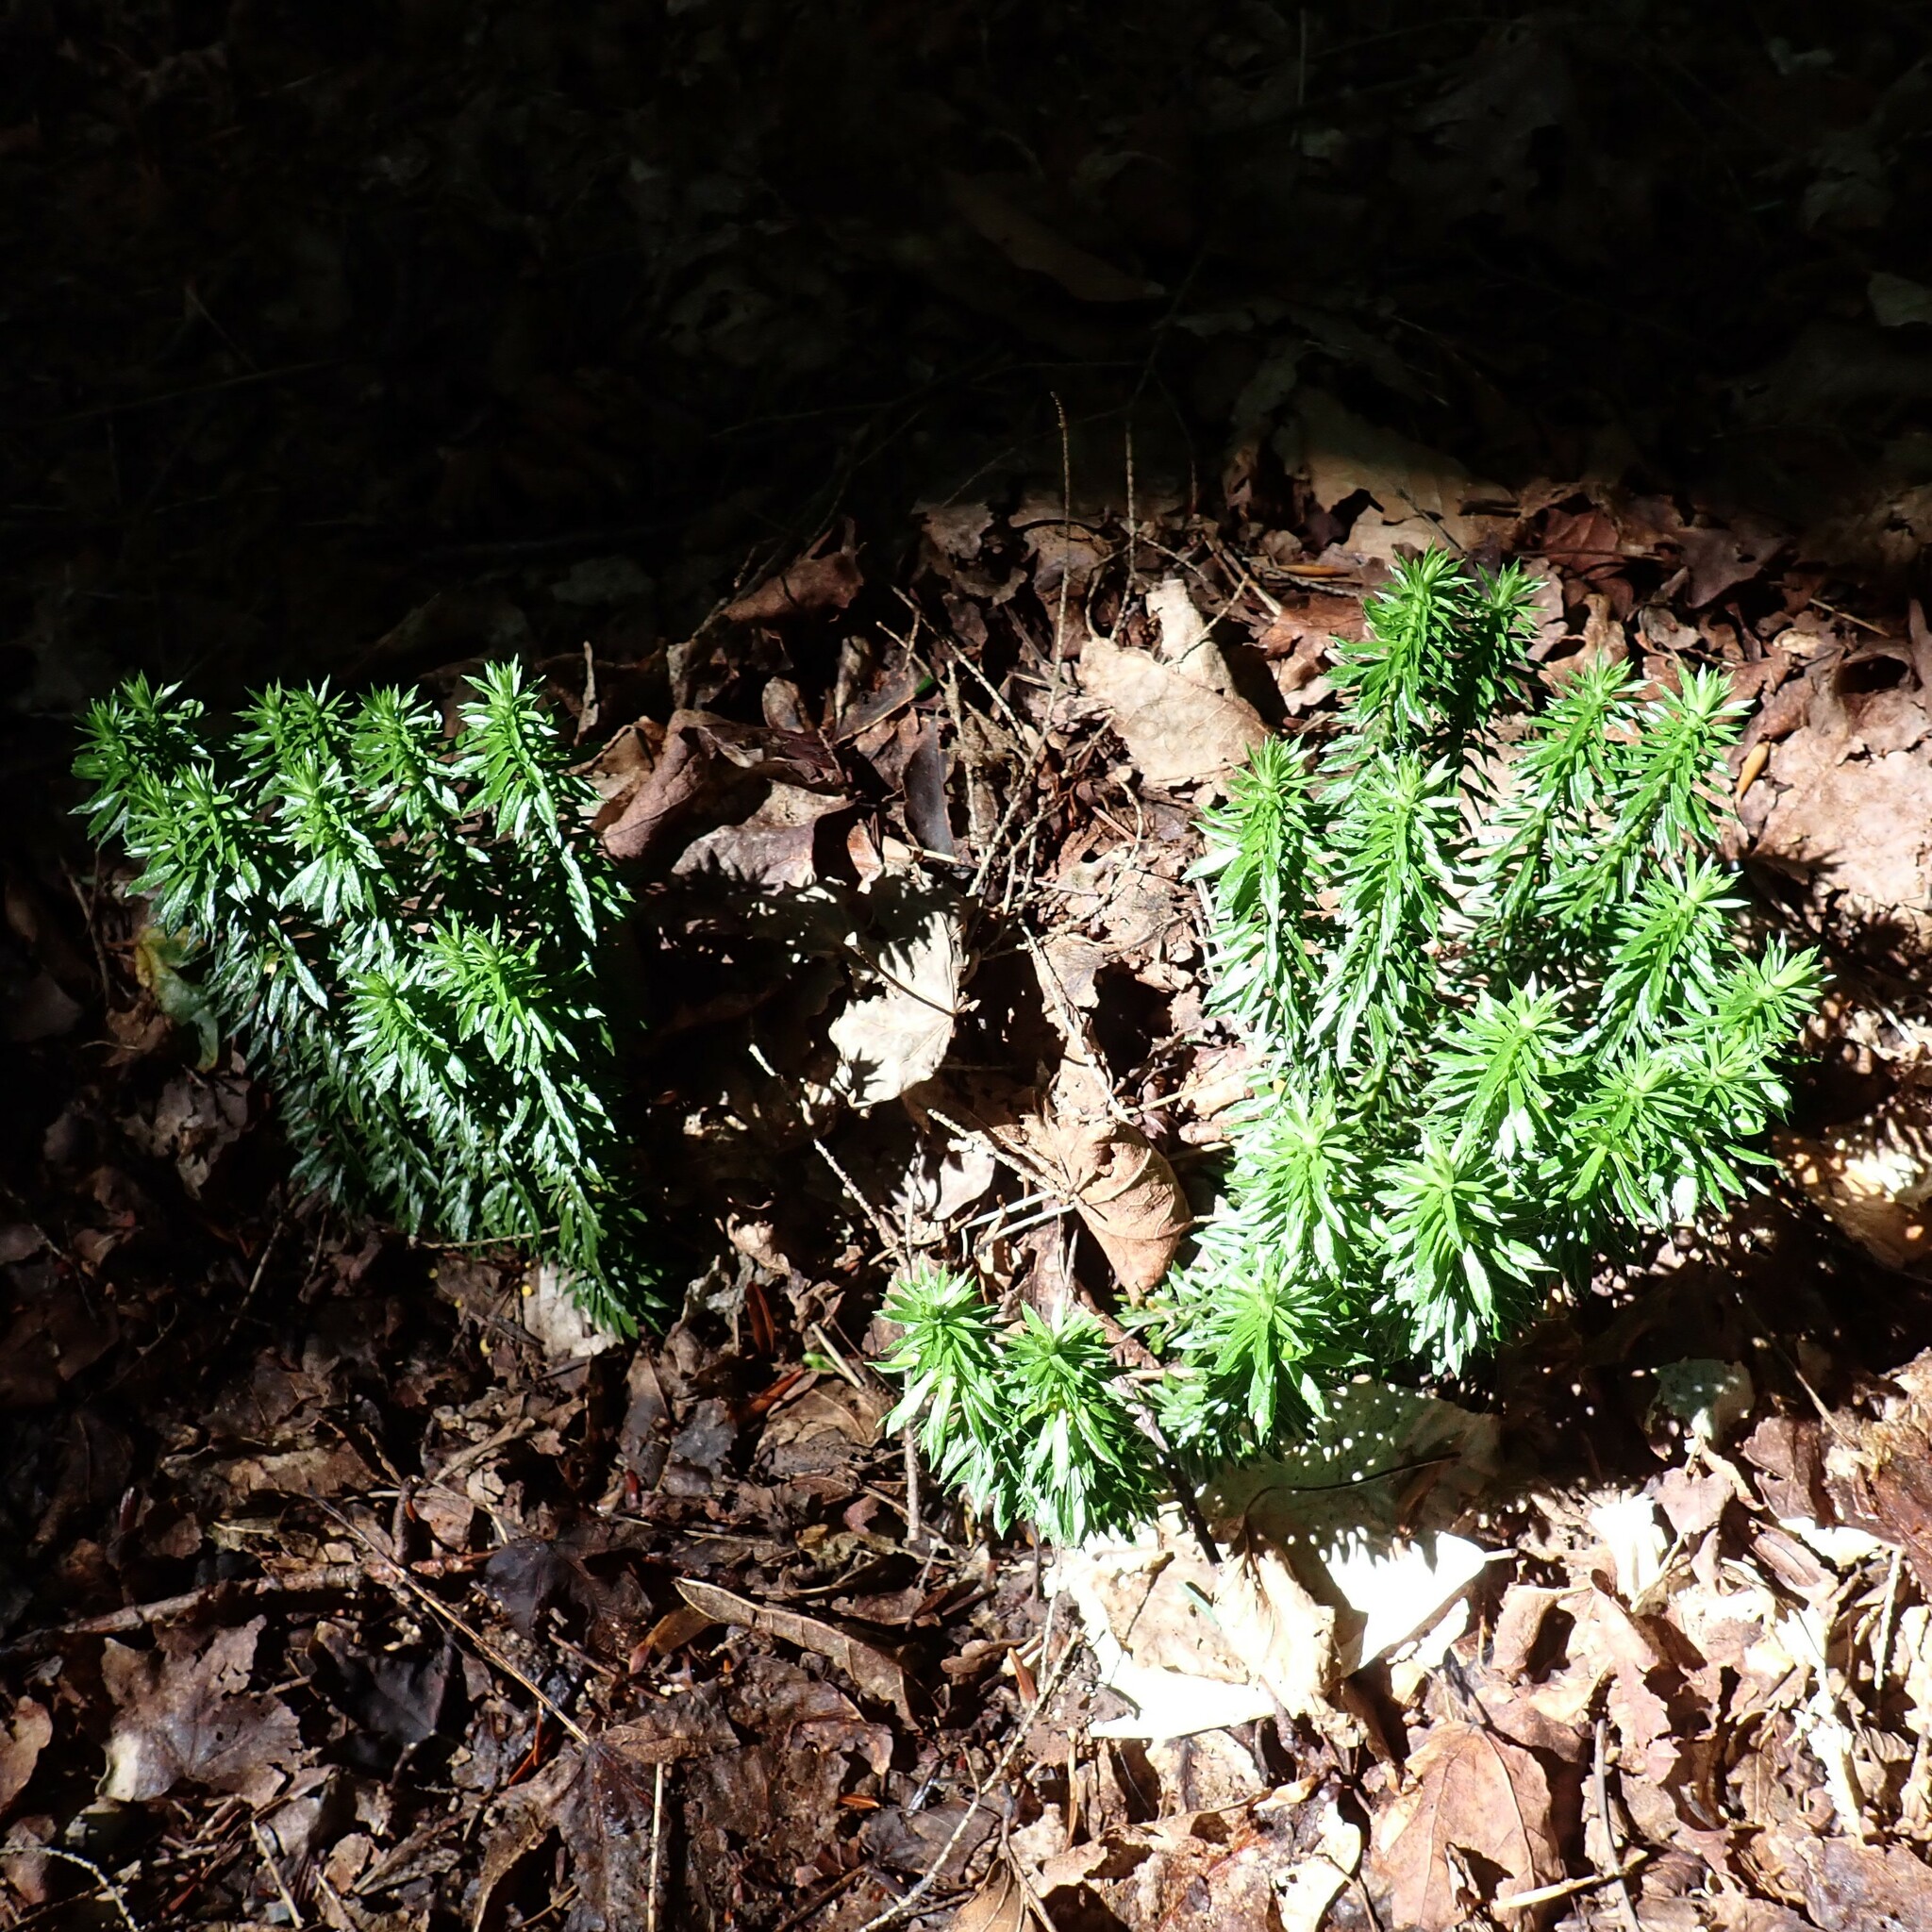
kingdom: Plantae
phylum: Tracheophyta
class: Lycopodiopsida
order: Lycopodiales
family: Lycopodiaceae
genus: Huperzia
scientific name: Huperzia lucidula
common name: Shining clubmoss
